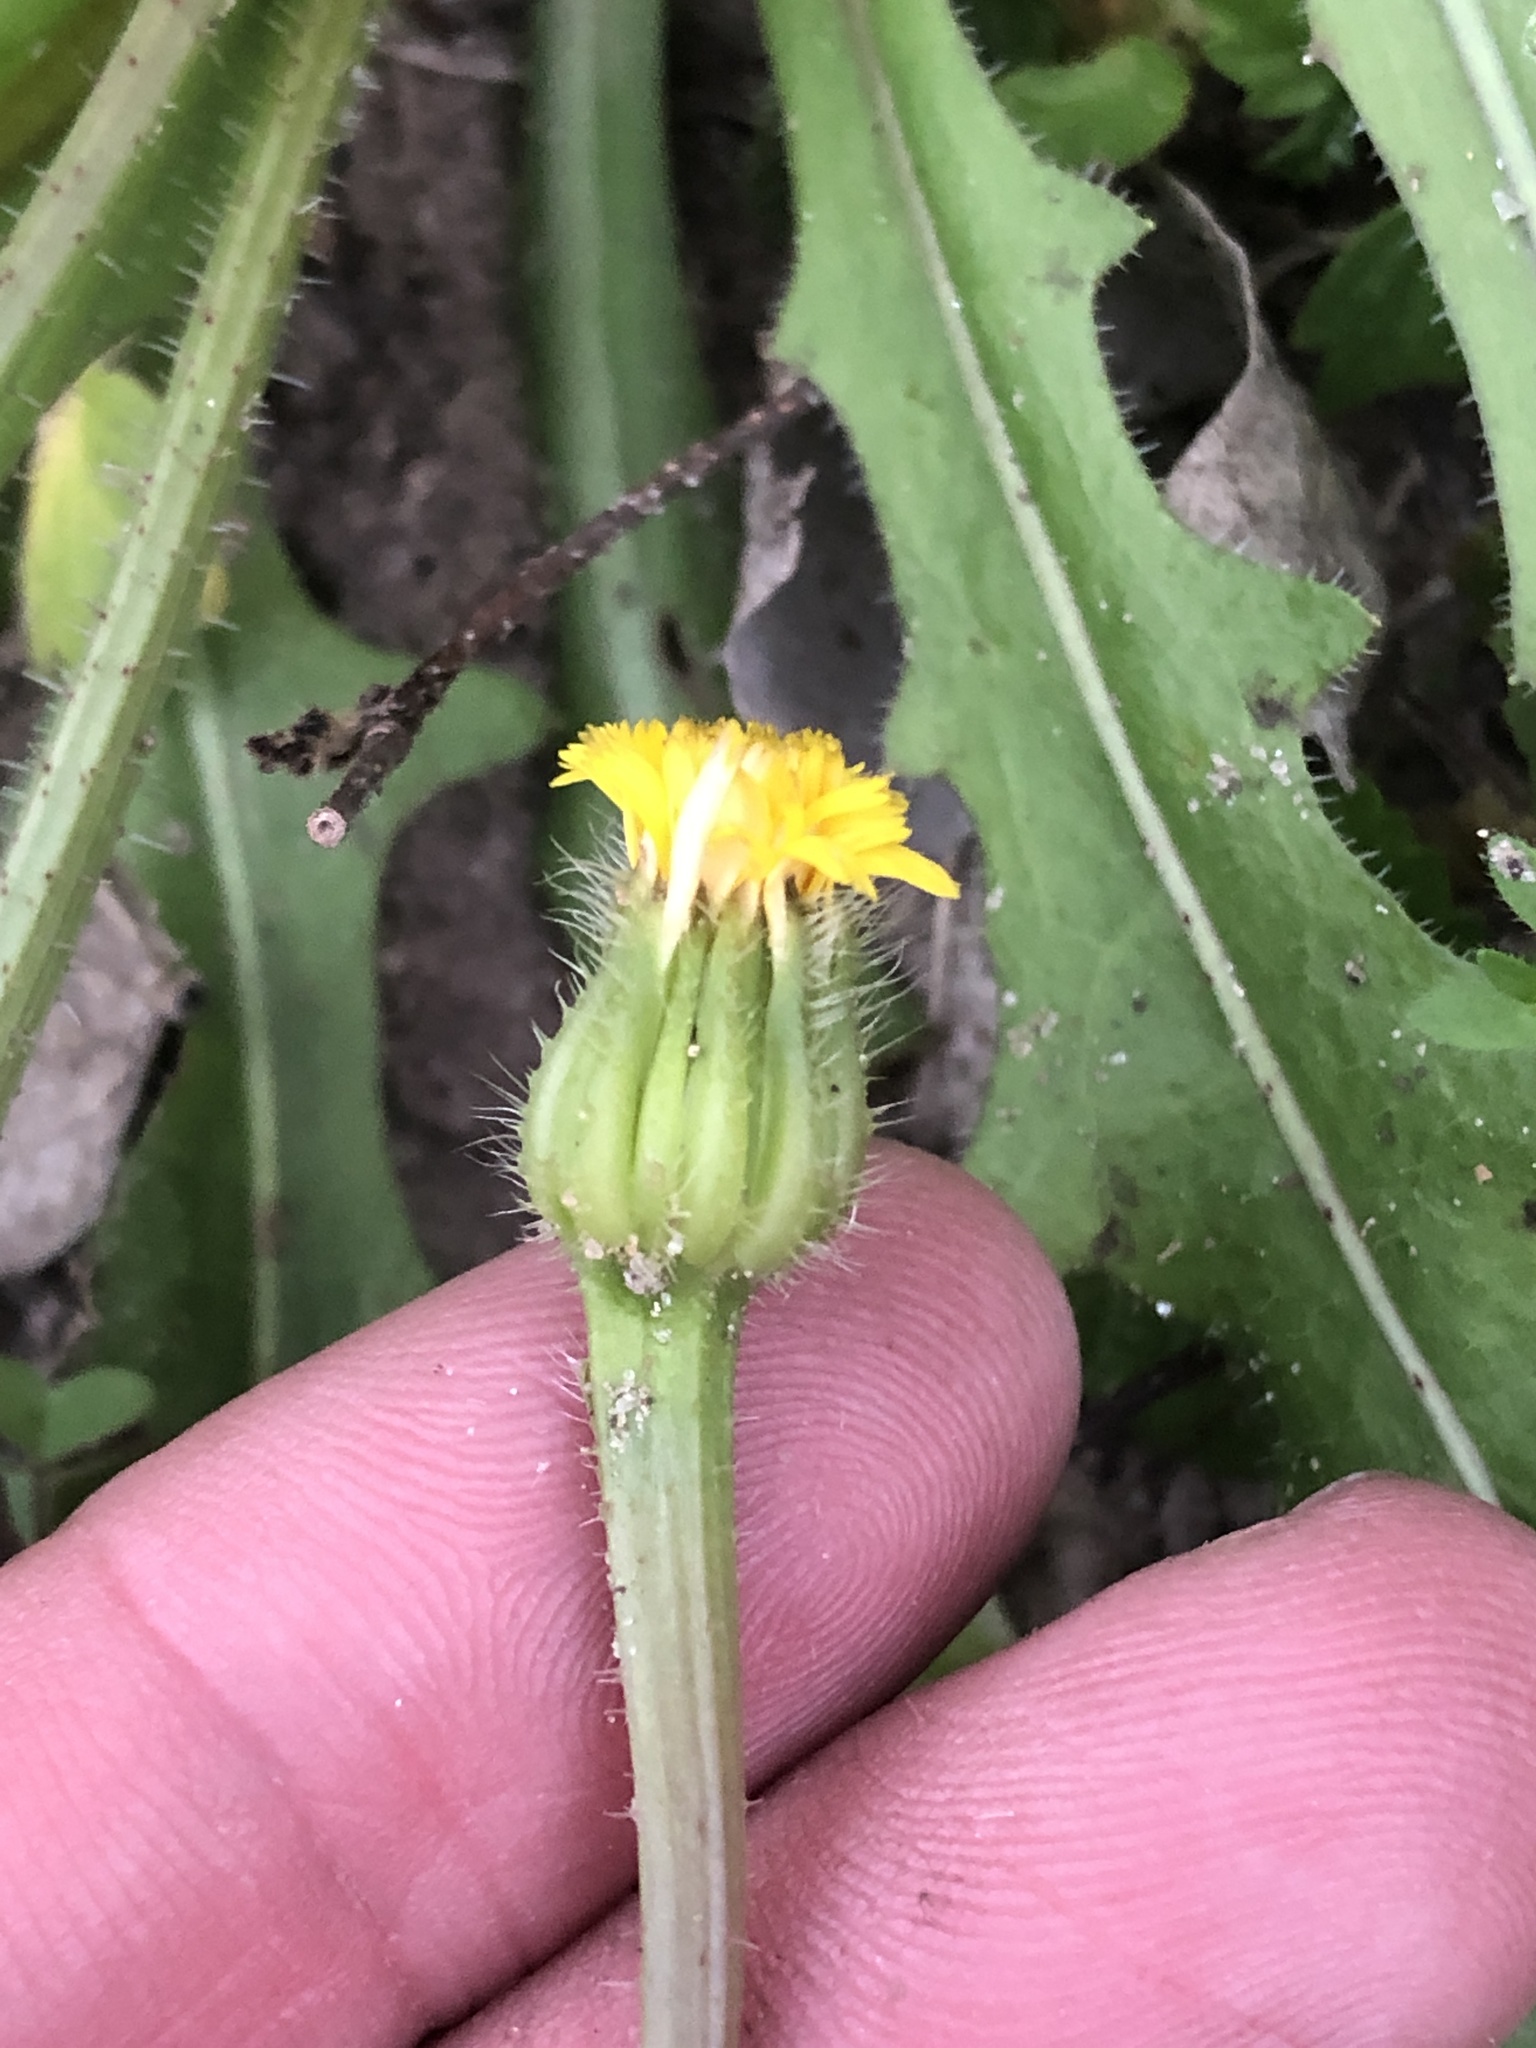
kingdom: Plantae
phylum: Tracheophyta
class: Magnoliopsida
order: Asterales
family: Asteraceae
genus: Hedypnois
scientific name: Hedypnois rhagadioloides
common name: Cretan weed
